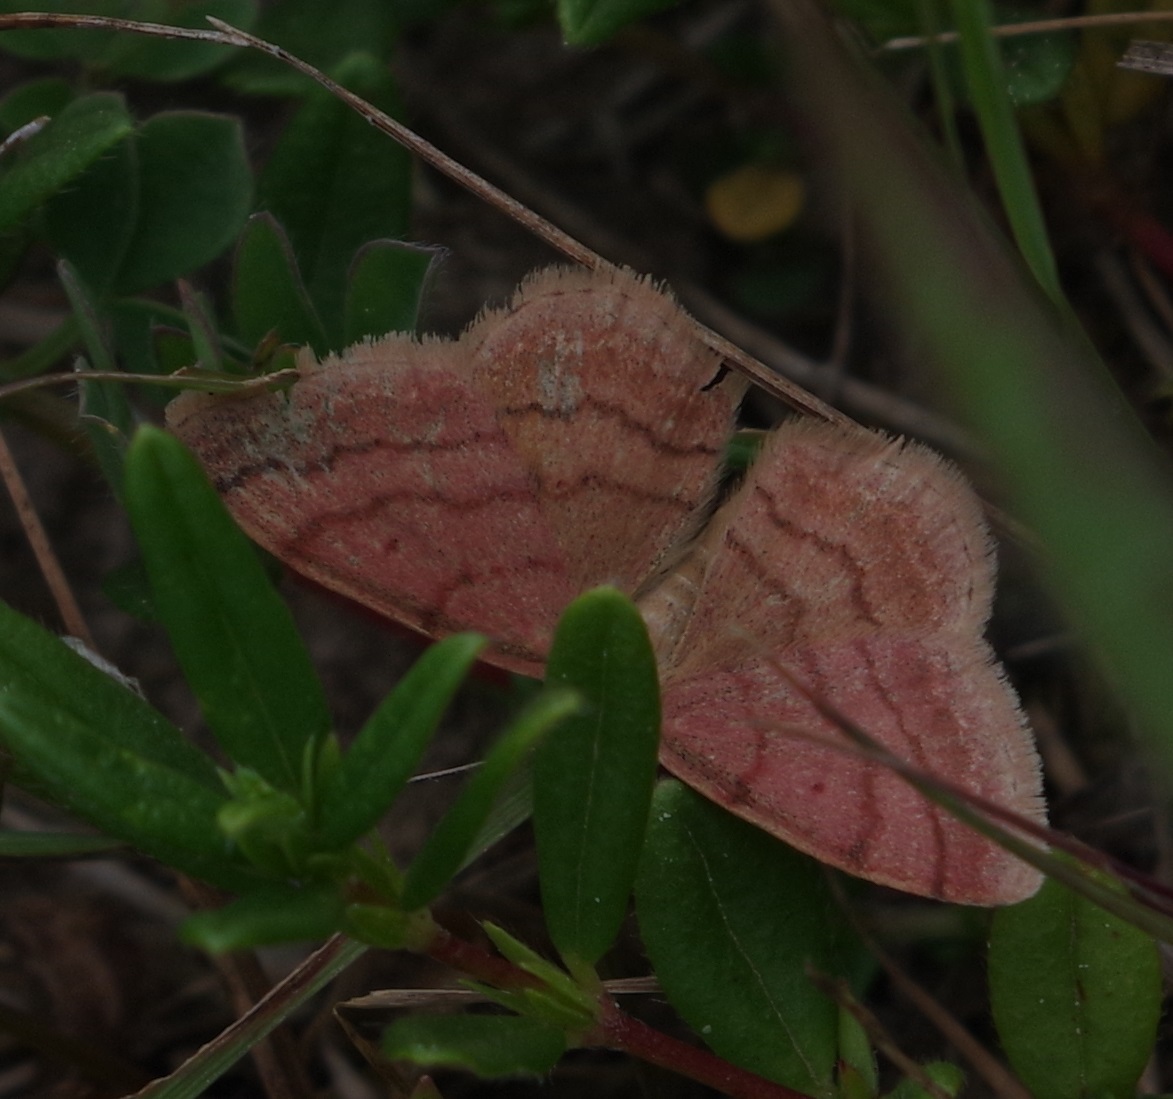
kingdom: Animalia
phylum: Arthropoda
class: Insecta
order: Lepidoptera
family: Geometridae
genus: Scopula
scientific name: Scopula rubiginata
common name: Tawny wave
